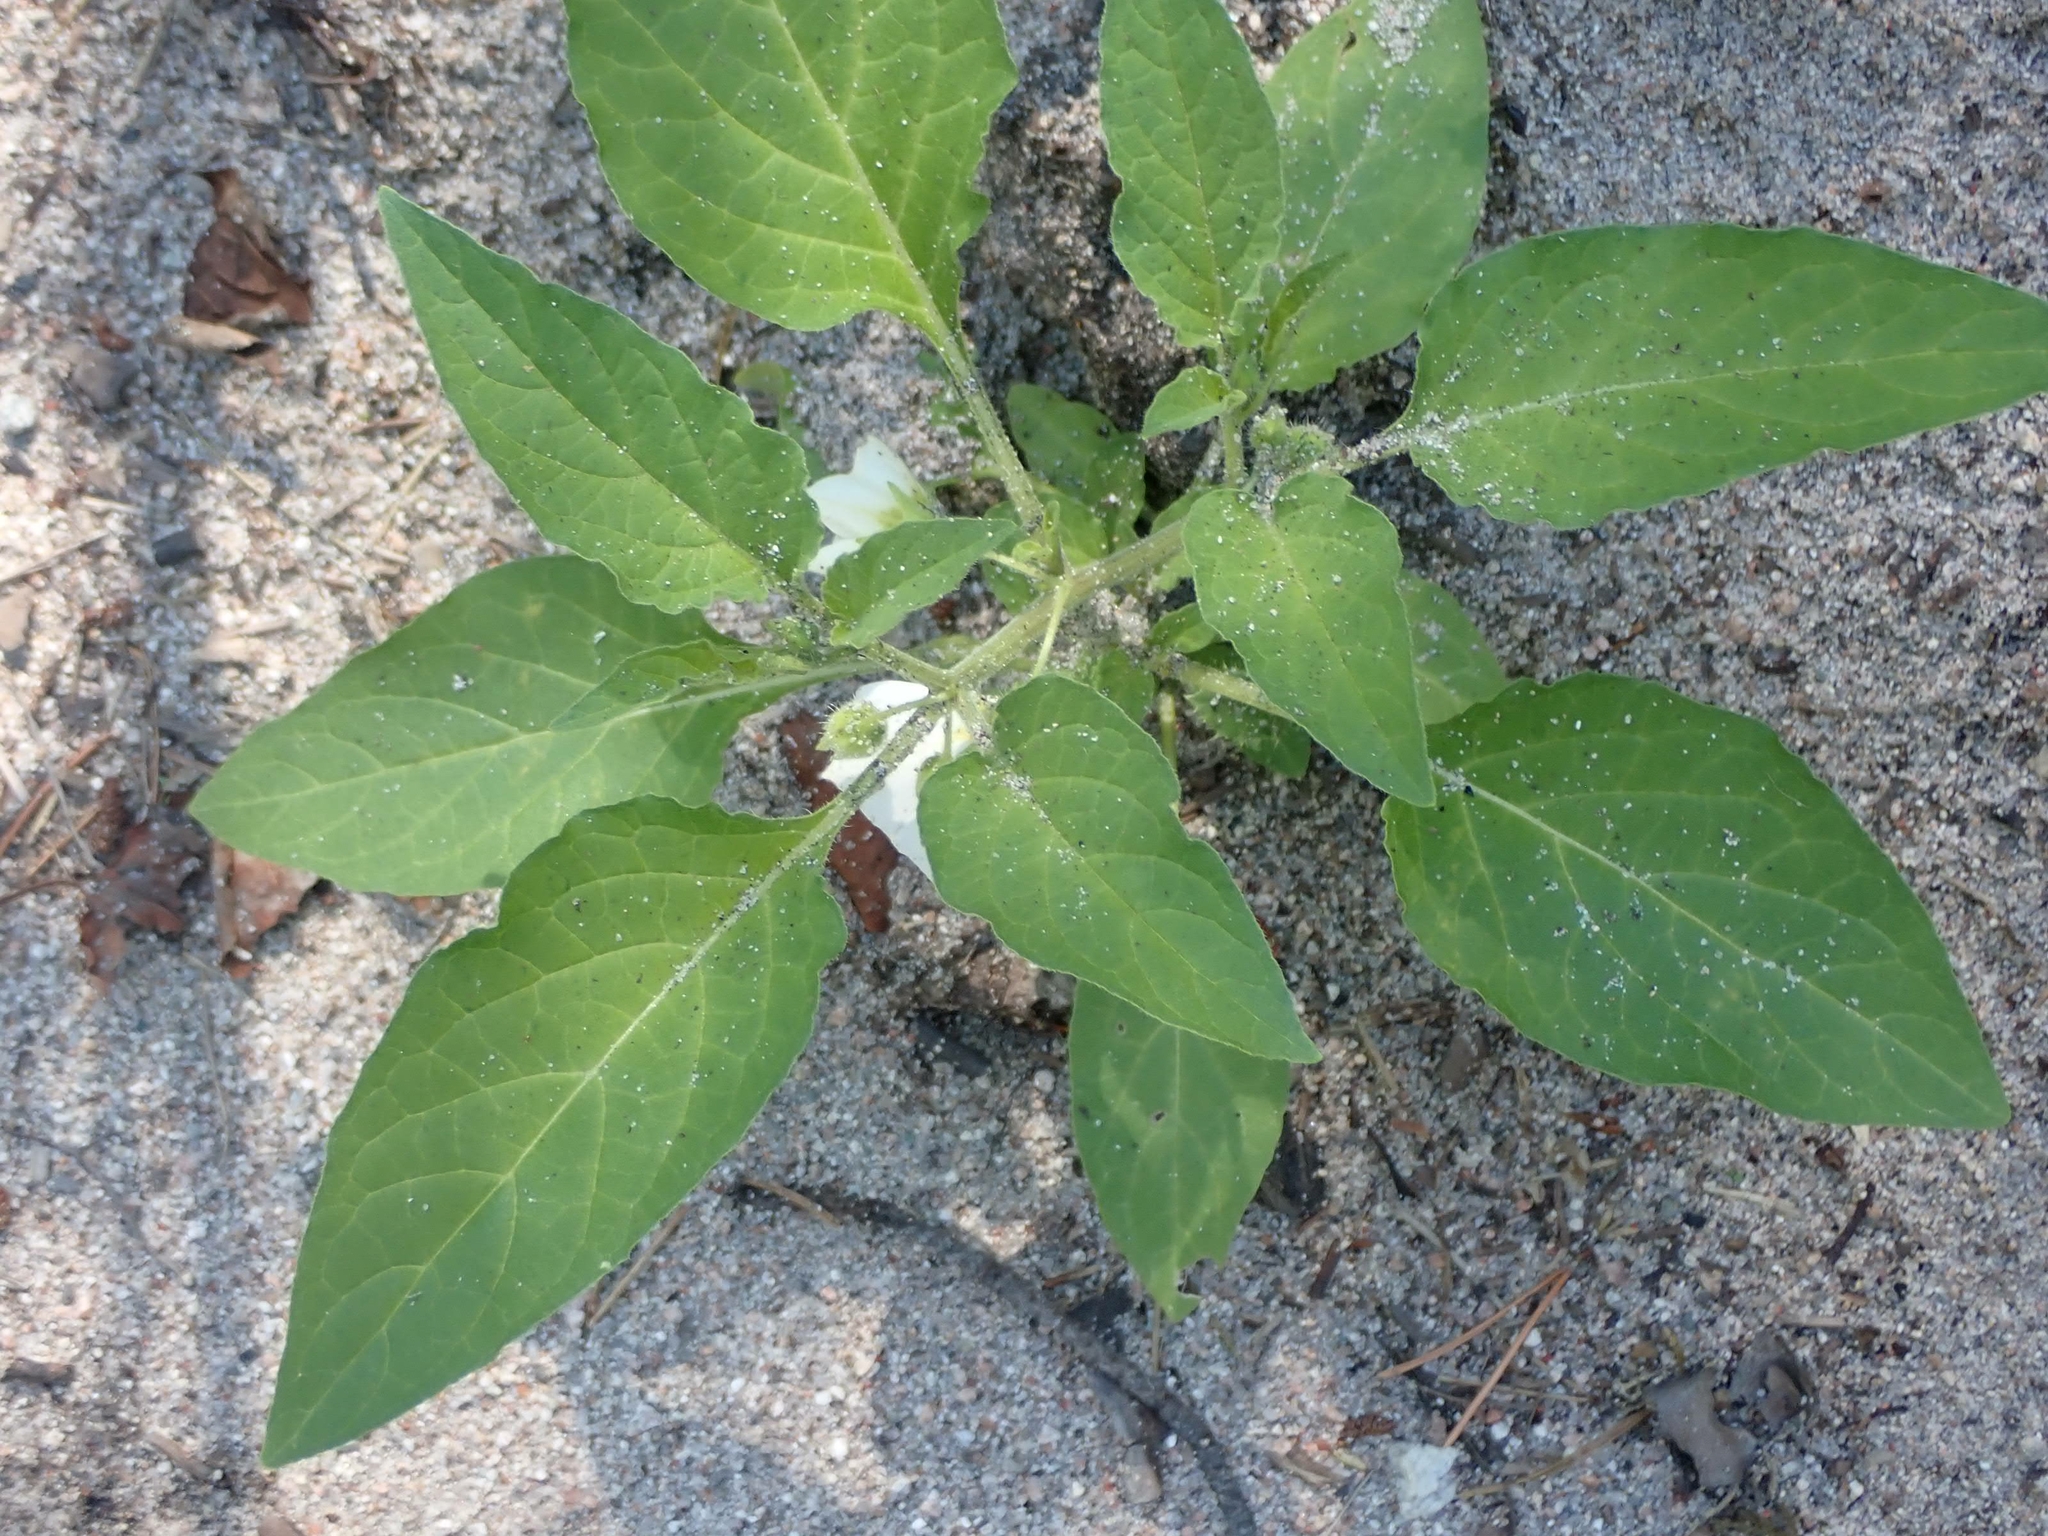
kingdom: Plantae
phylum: Tracheophyta
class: Magnoliopsida
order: Solanales
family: Solanaceae
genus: Leucophysalis
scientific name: Leucophysalis grandiflora
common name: Large false ground-cherry
